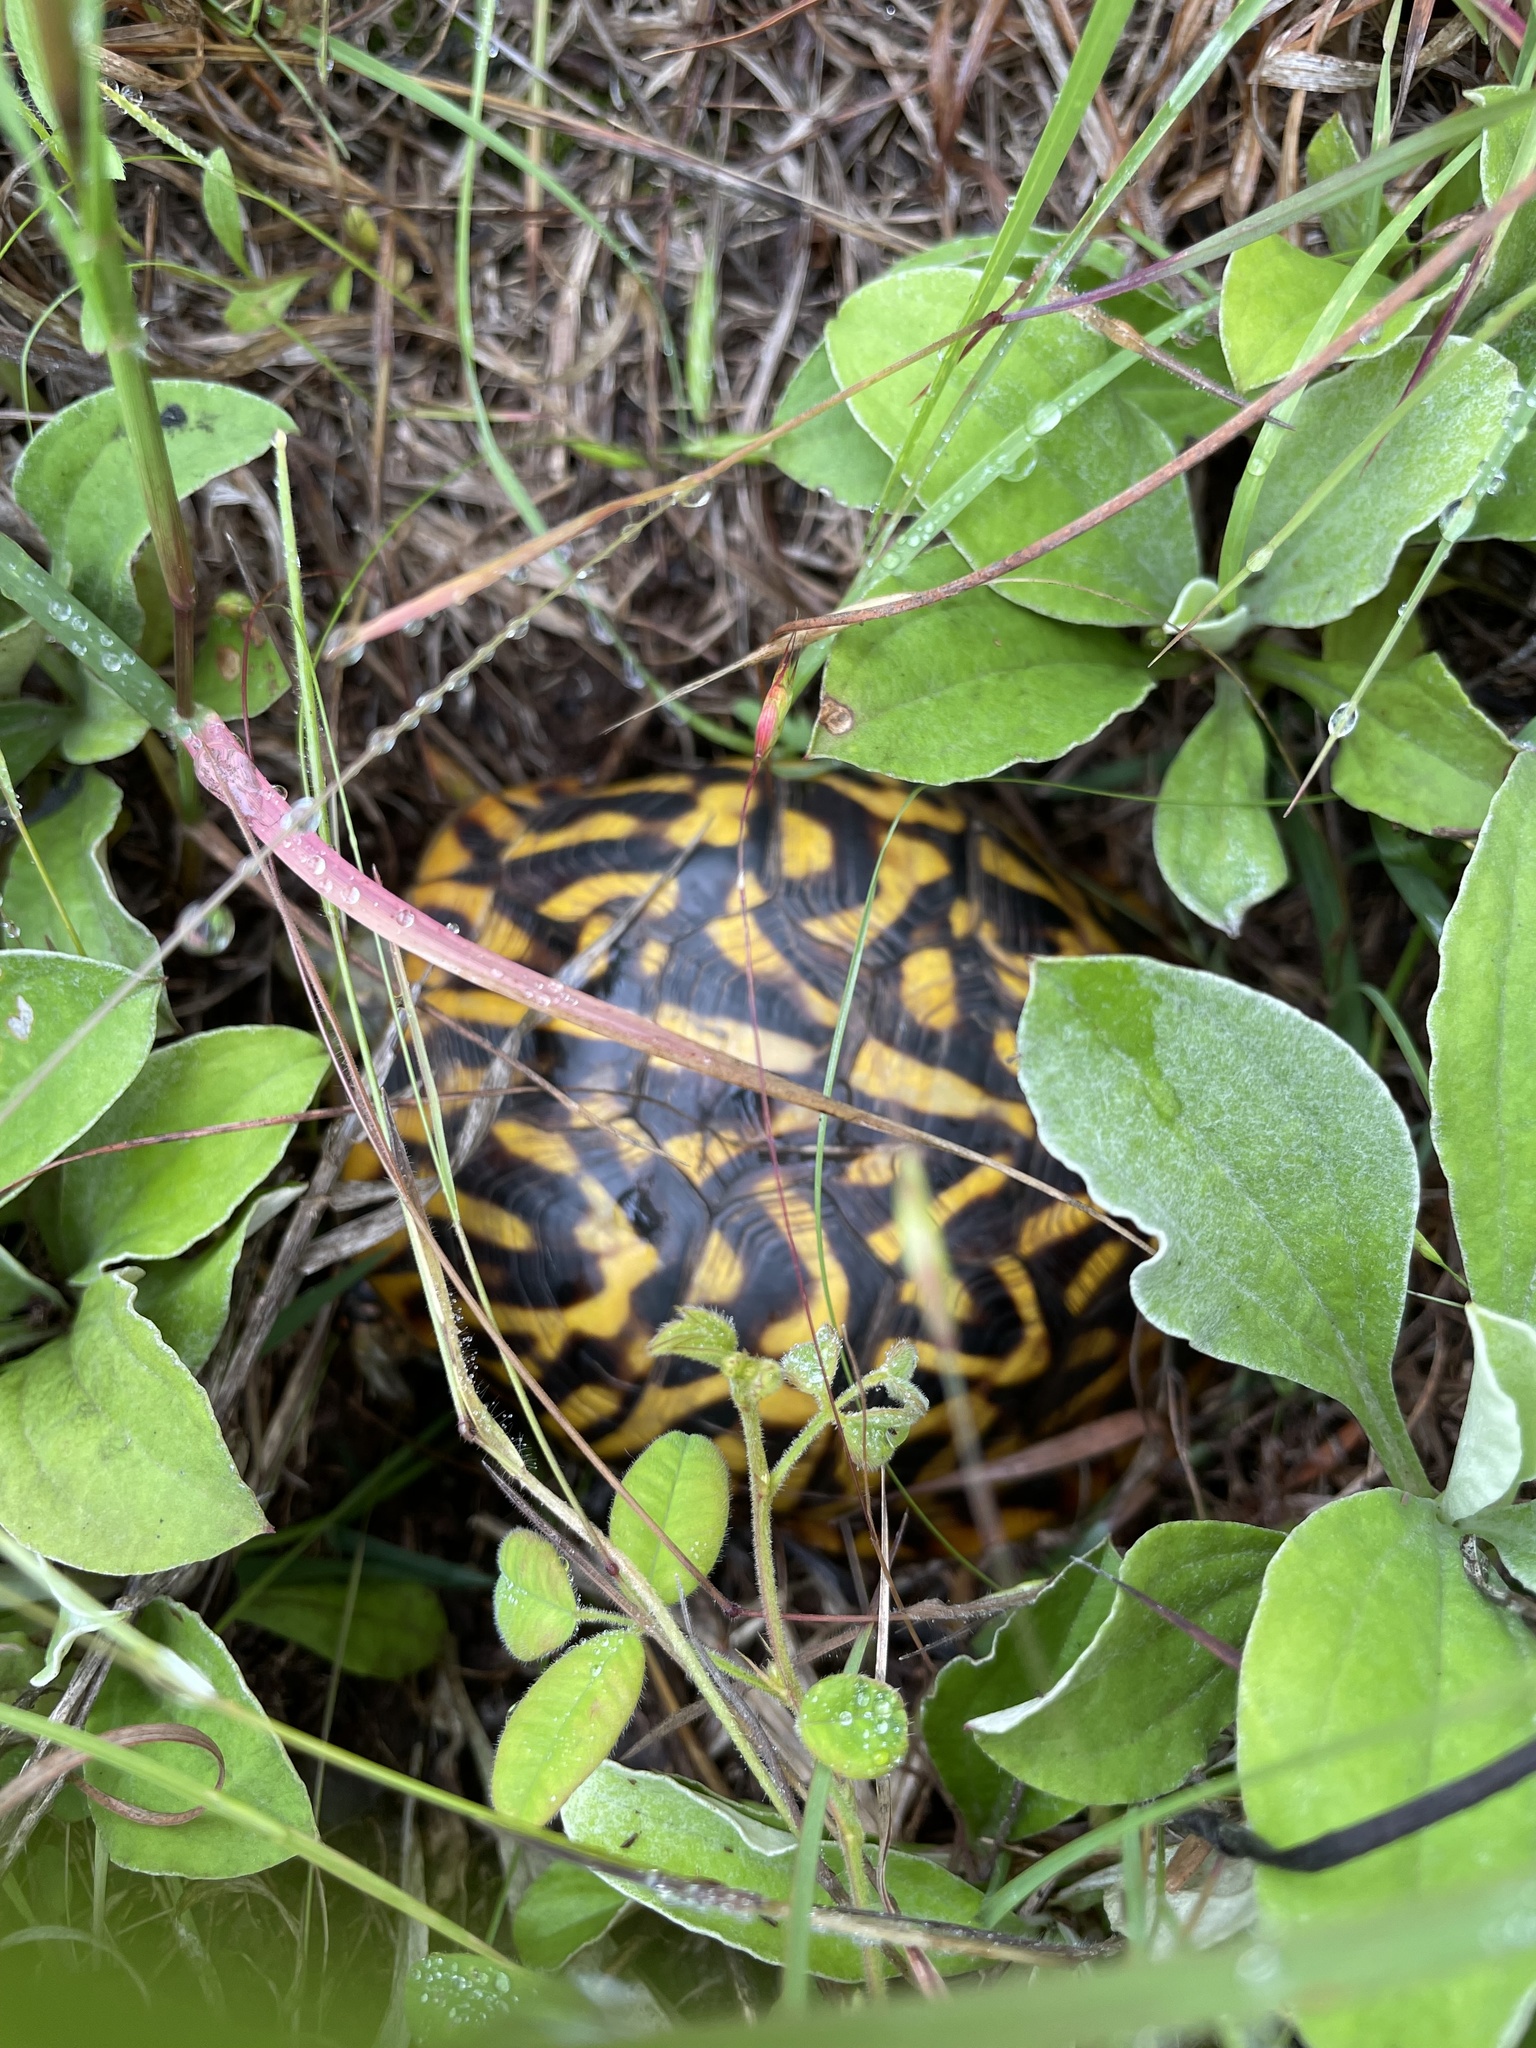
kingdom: Animalia
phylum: Chordata
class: Testudines
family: Emydidae
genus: Terrapene
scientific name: Terrapene ornata
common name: Western box turtle
